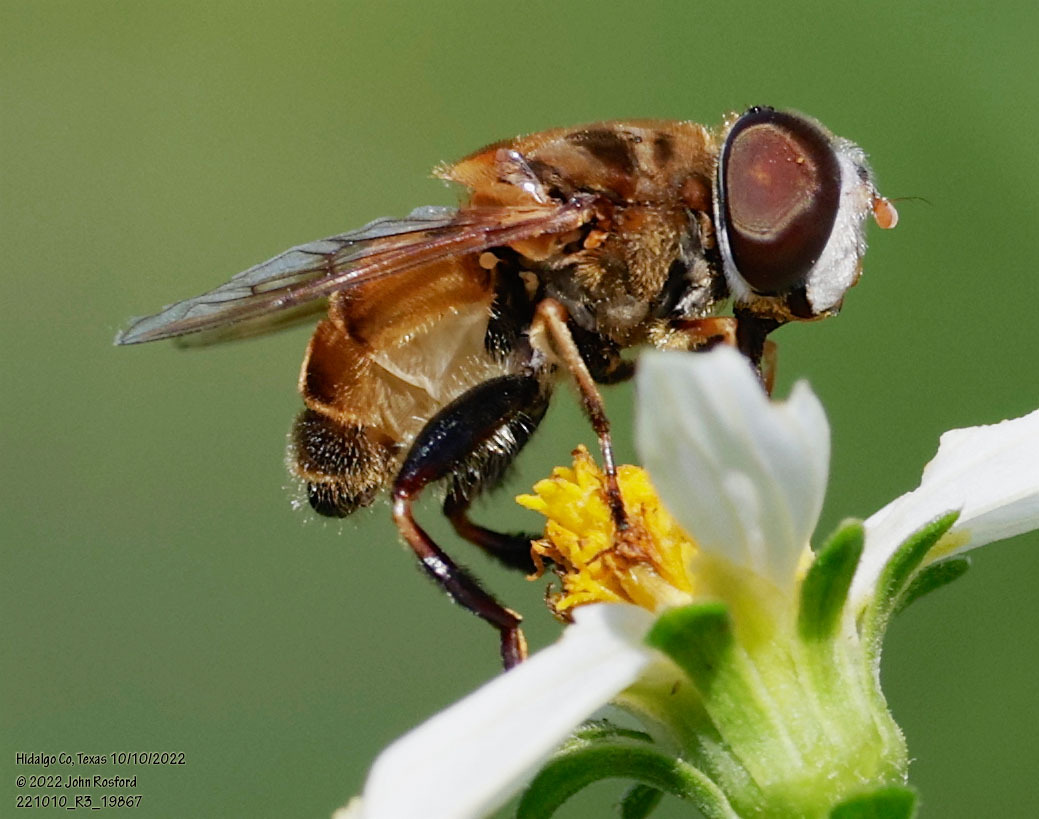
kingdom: Animalia
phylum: Arthropoda
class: Insecta
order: Diptera
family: Syrphidae
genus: Palpada
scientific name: Palpada vinetorum
